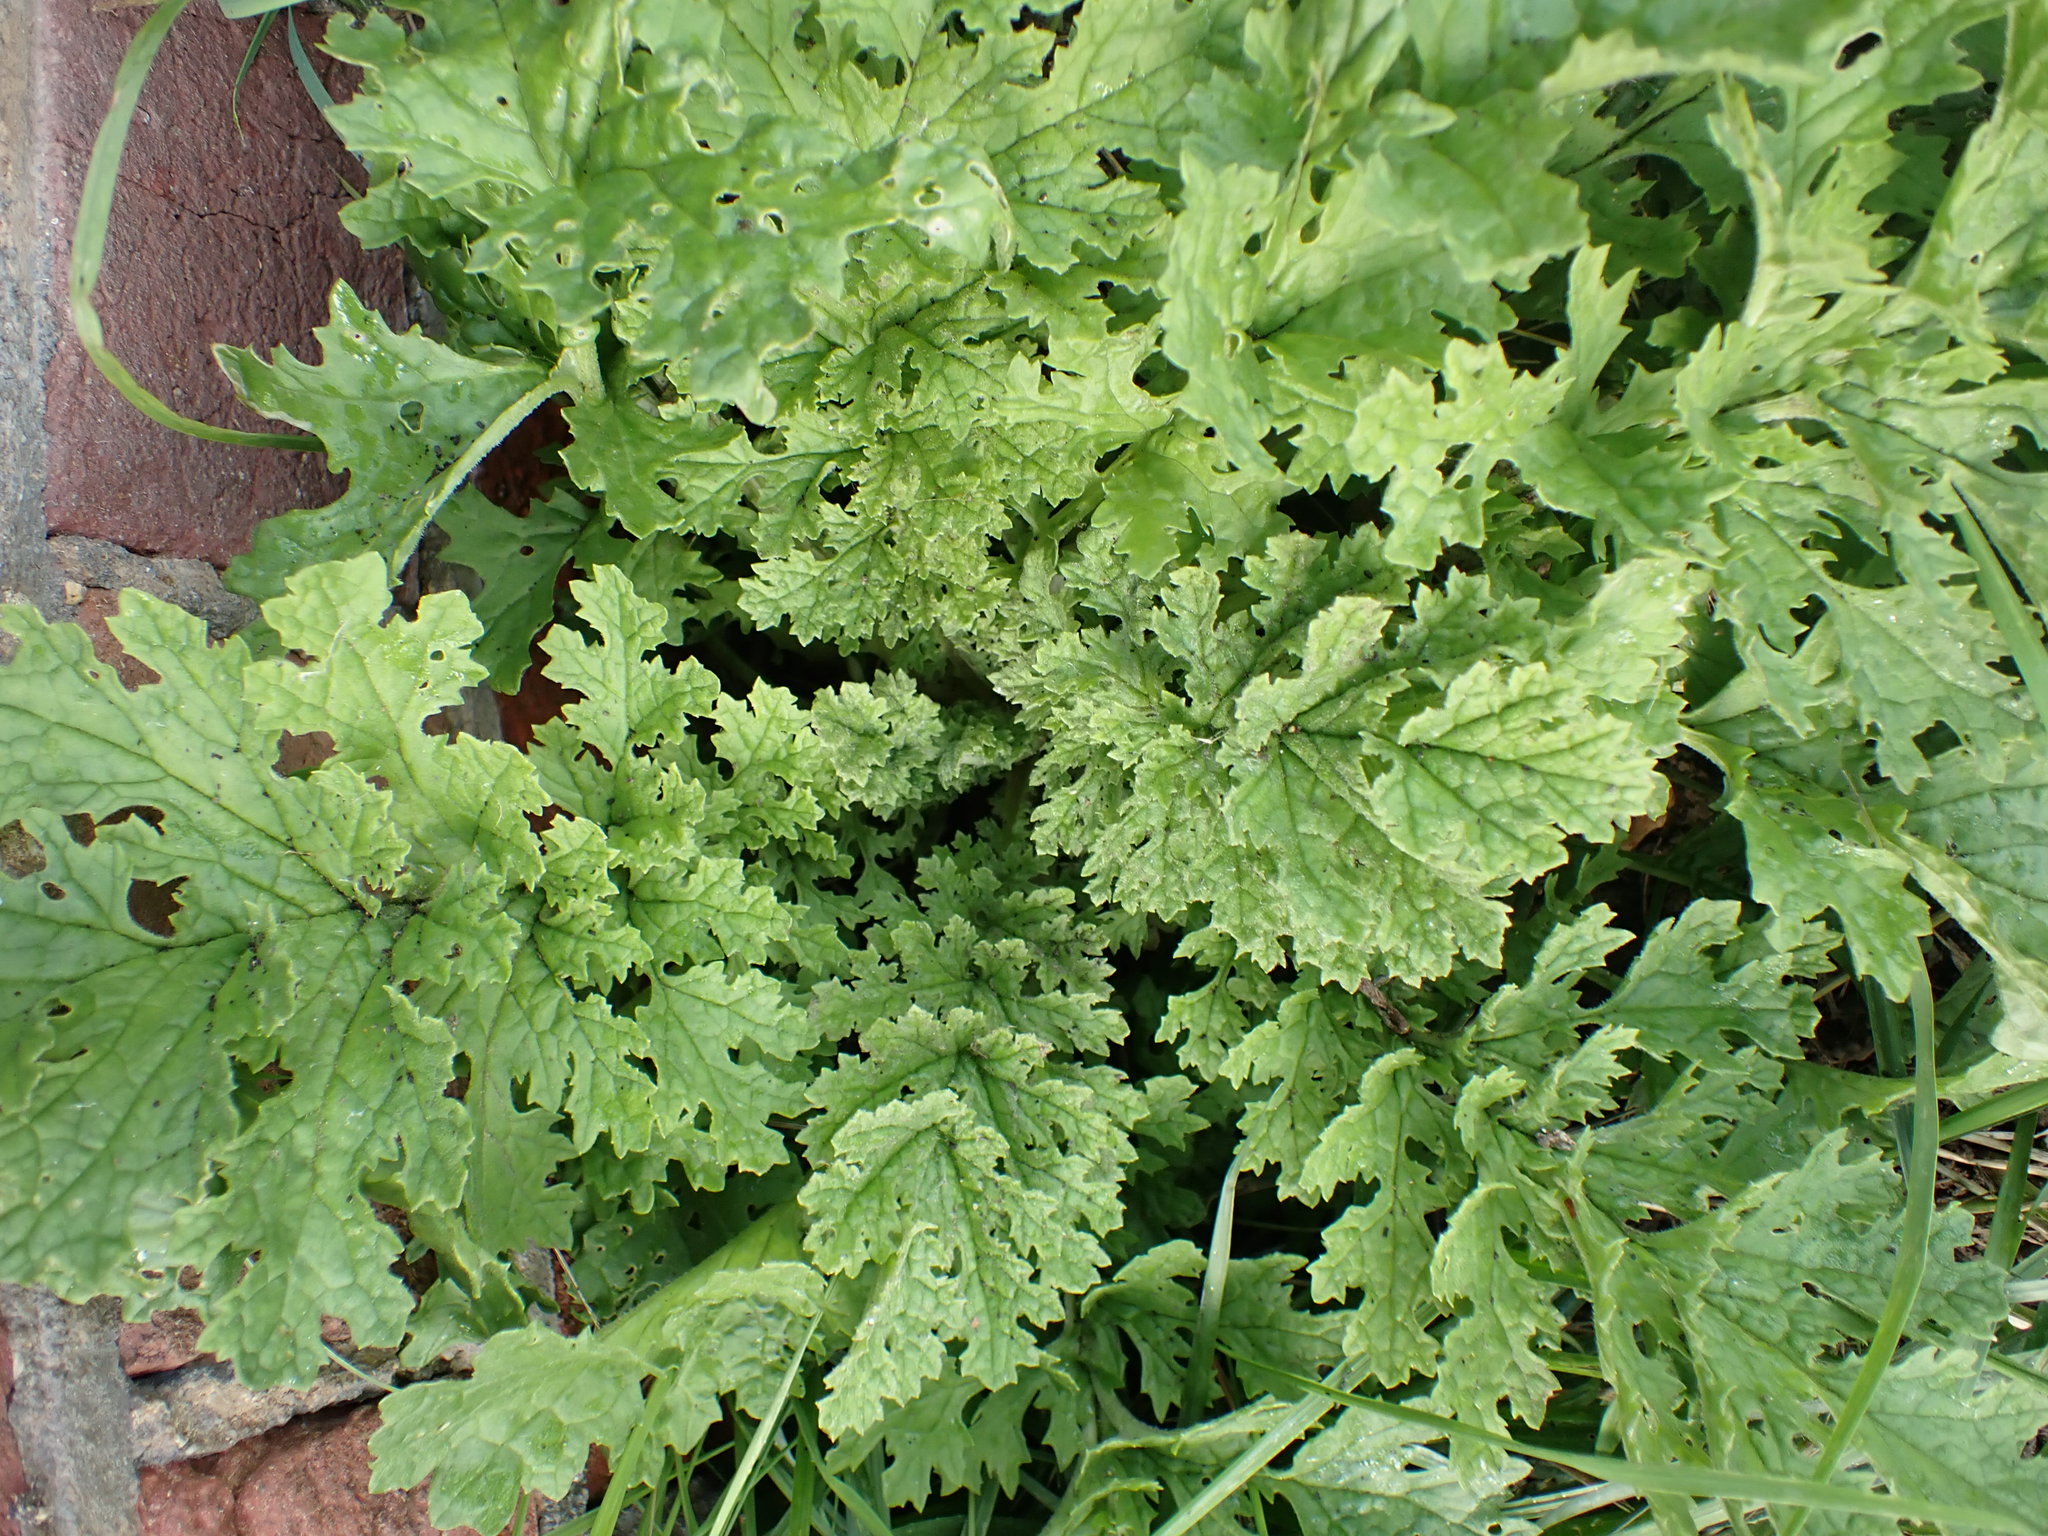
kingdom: Plantae
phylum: Tracheophyta
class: Magnoliopsida
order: Asterales
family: Asteraceae
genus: Jacobaea
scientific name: Jacobaea vulgaris
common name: Stinking willie
